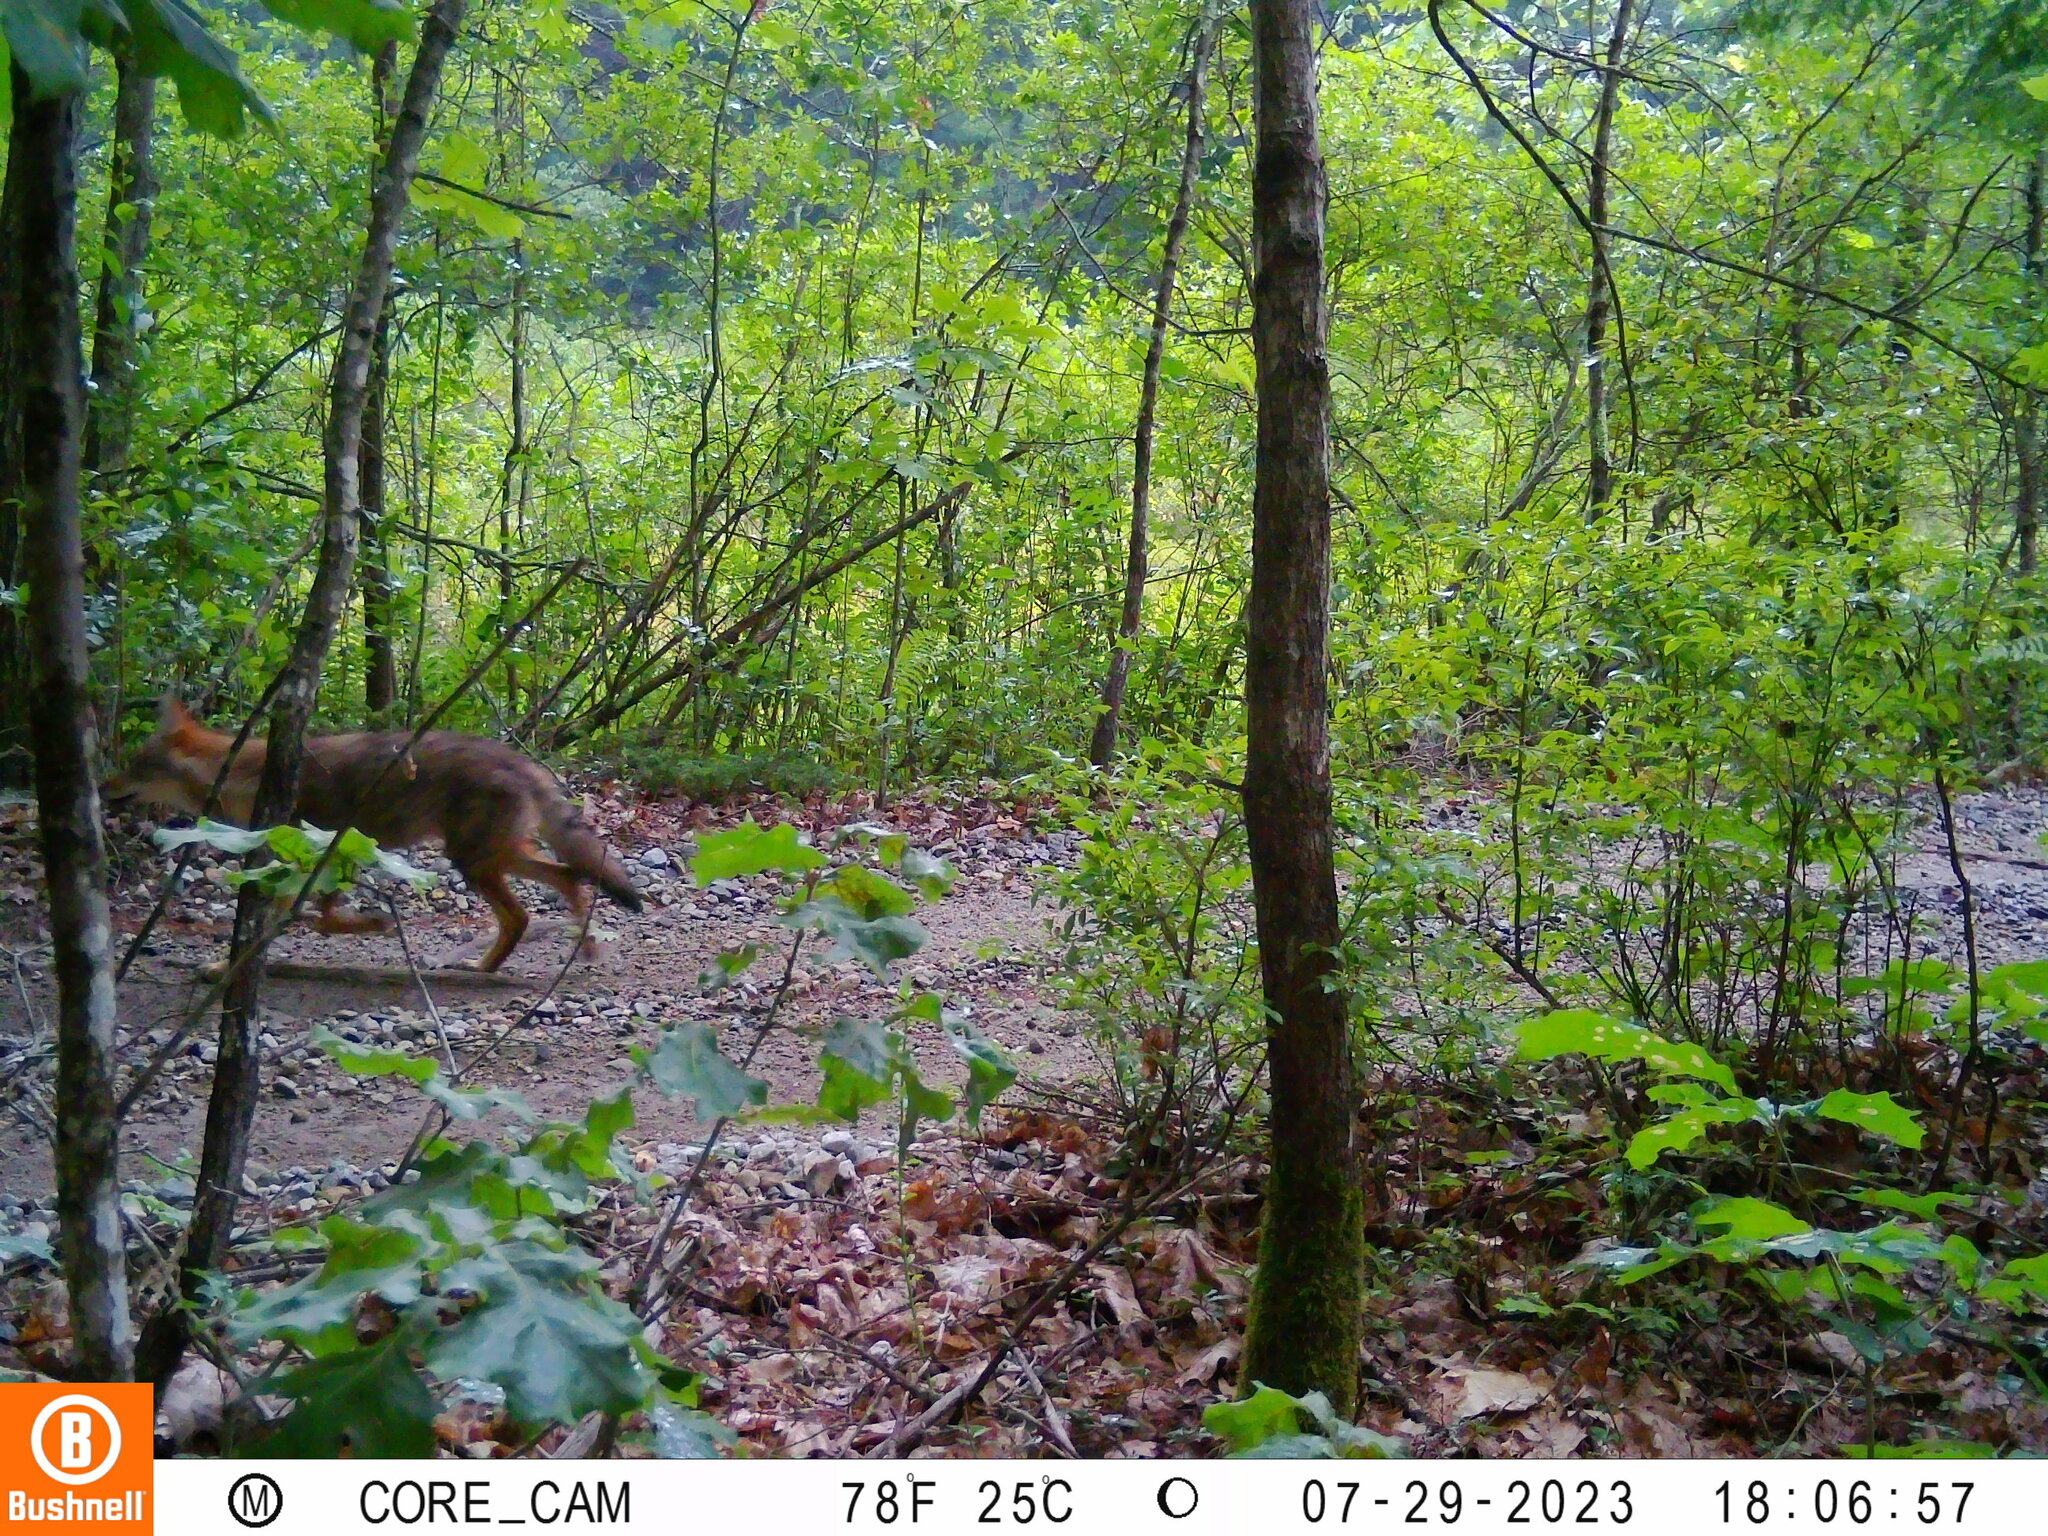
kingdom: Animalia
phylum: Chordata
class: Mammalia
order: Carnivora
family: Canidae
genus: Canis
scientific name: Canis latrans
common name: Coyote
